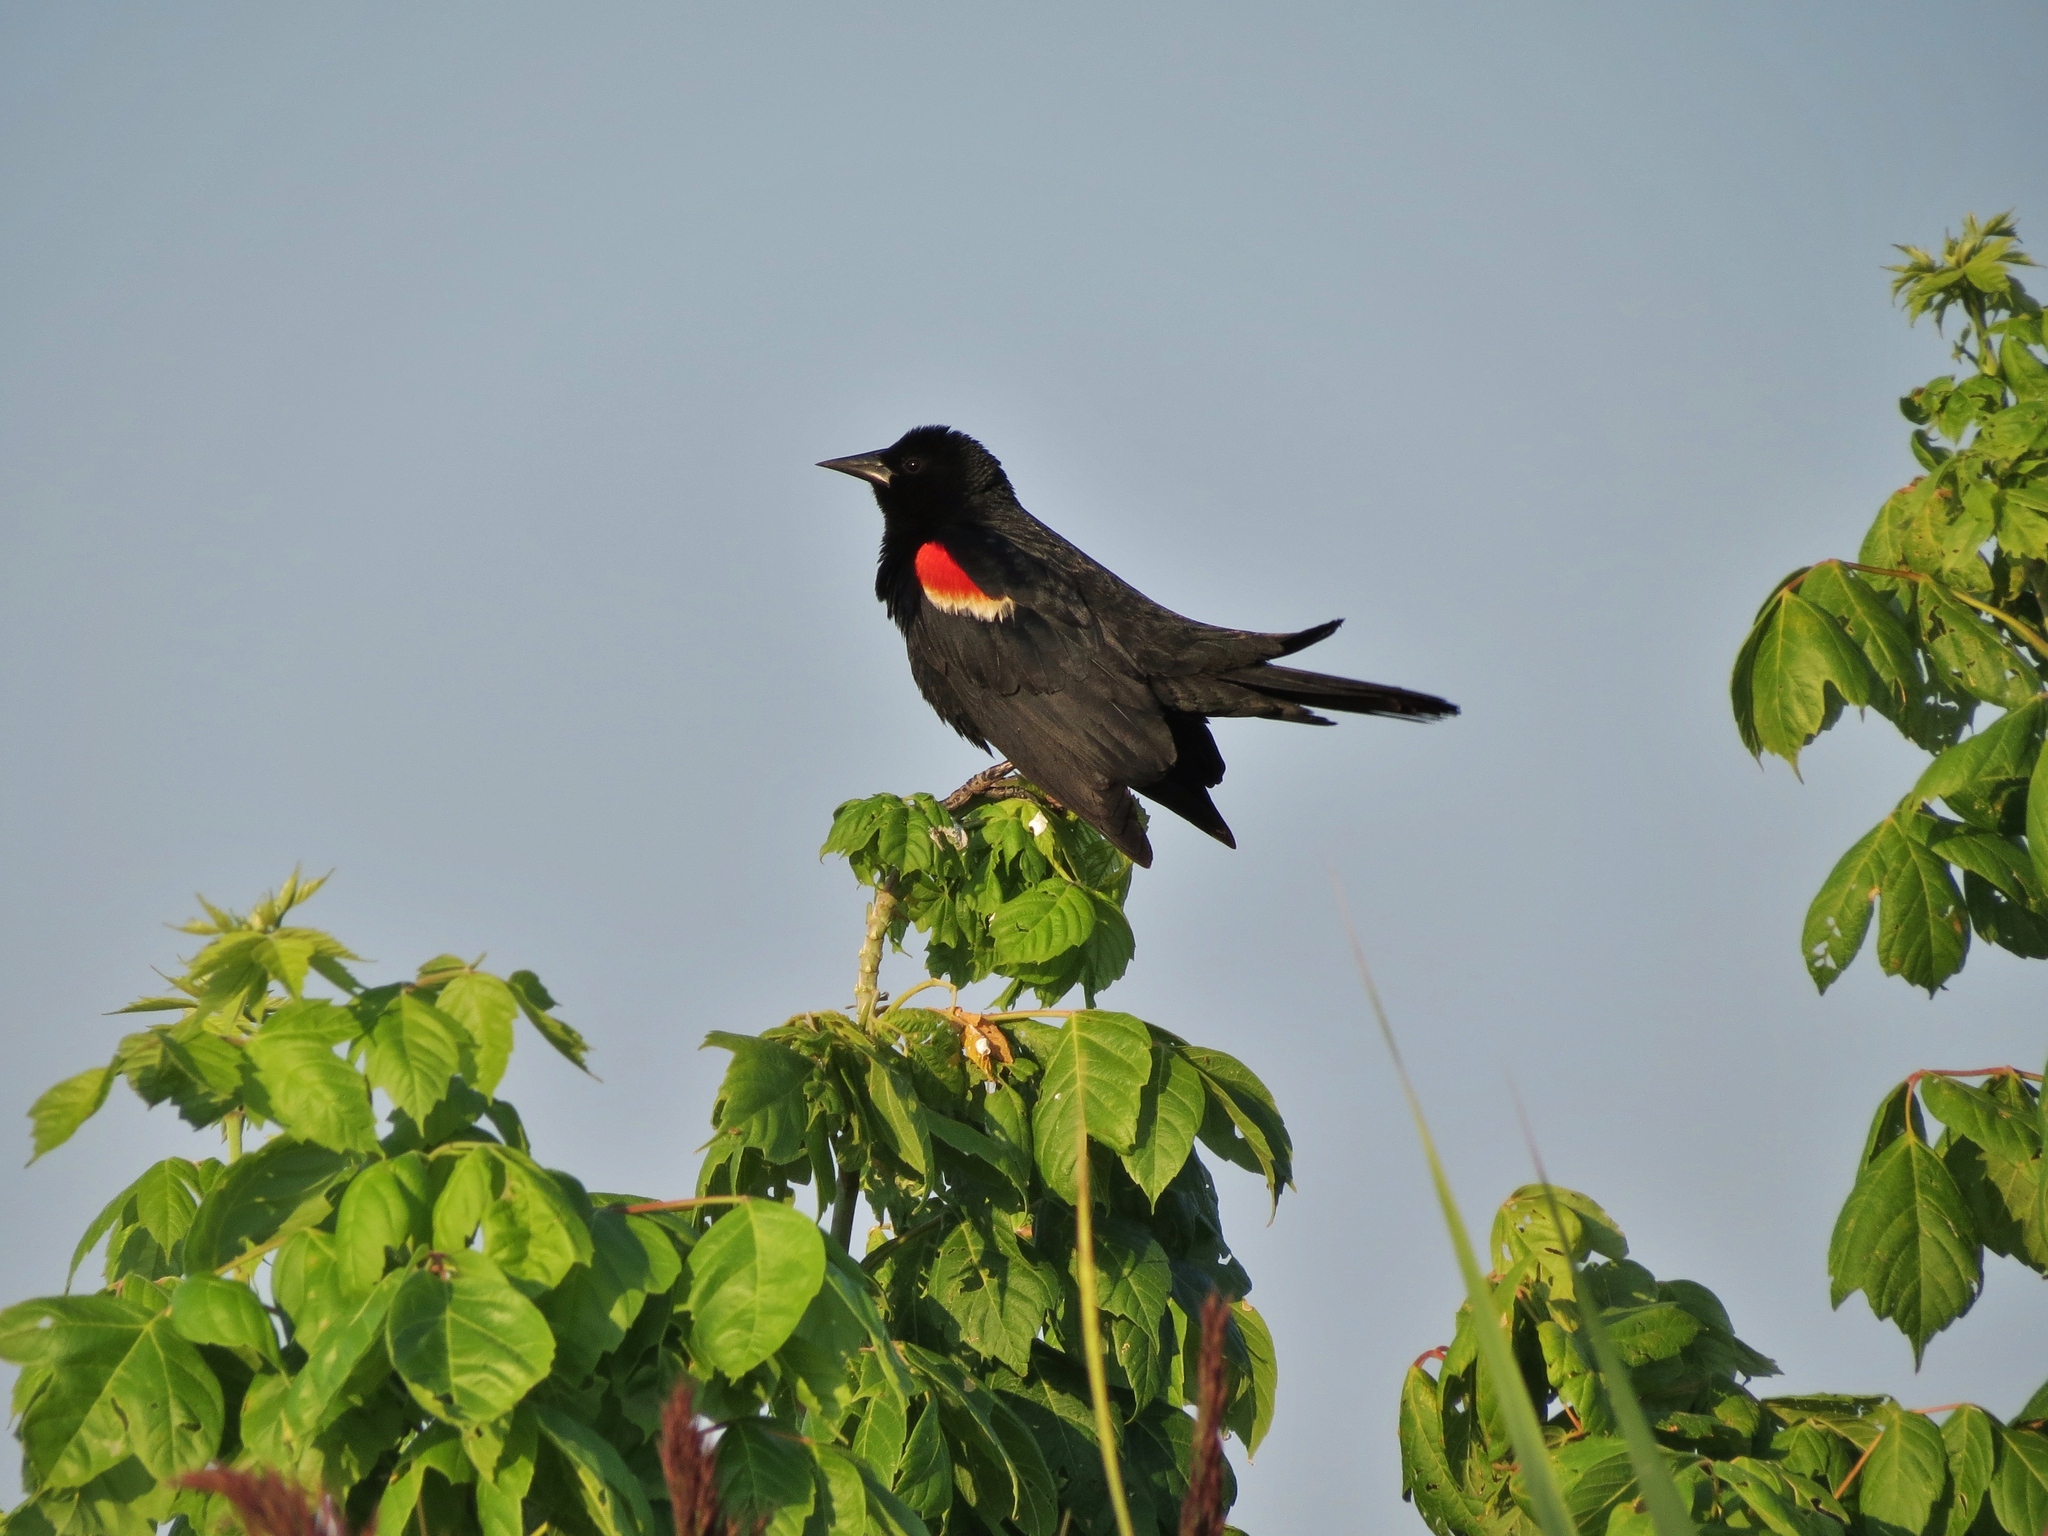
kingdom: Animalia
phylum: Chordata
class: Aves
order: Passeriformes
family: Icteridae
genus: Agelaius
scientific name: Agelaius phoeniceus
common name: Red-winged blackbird
